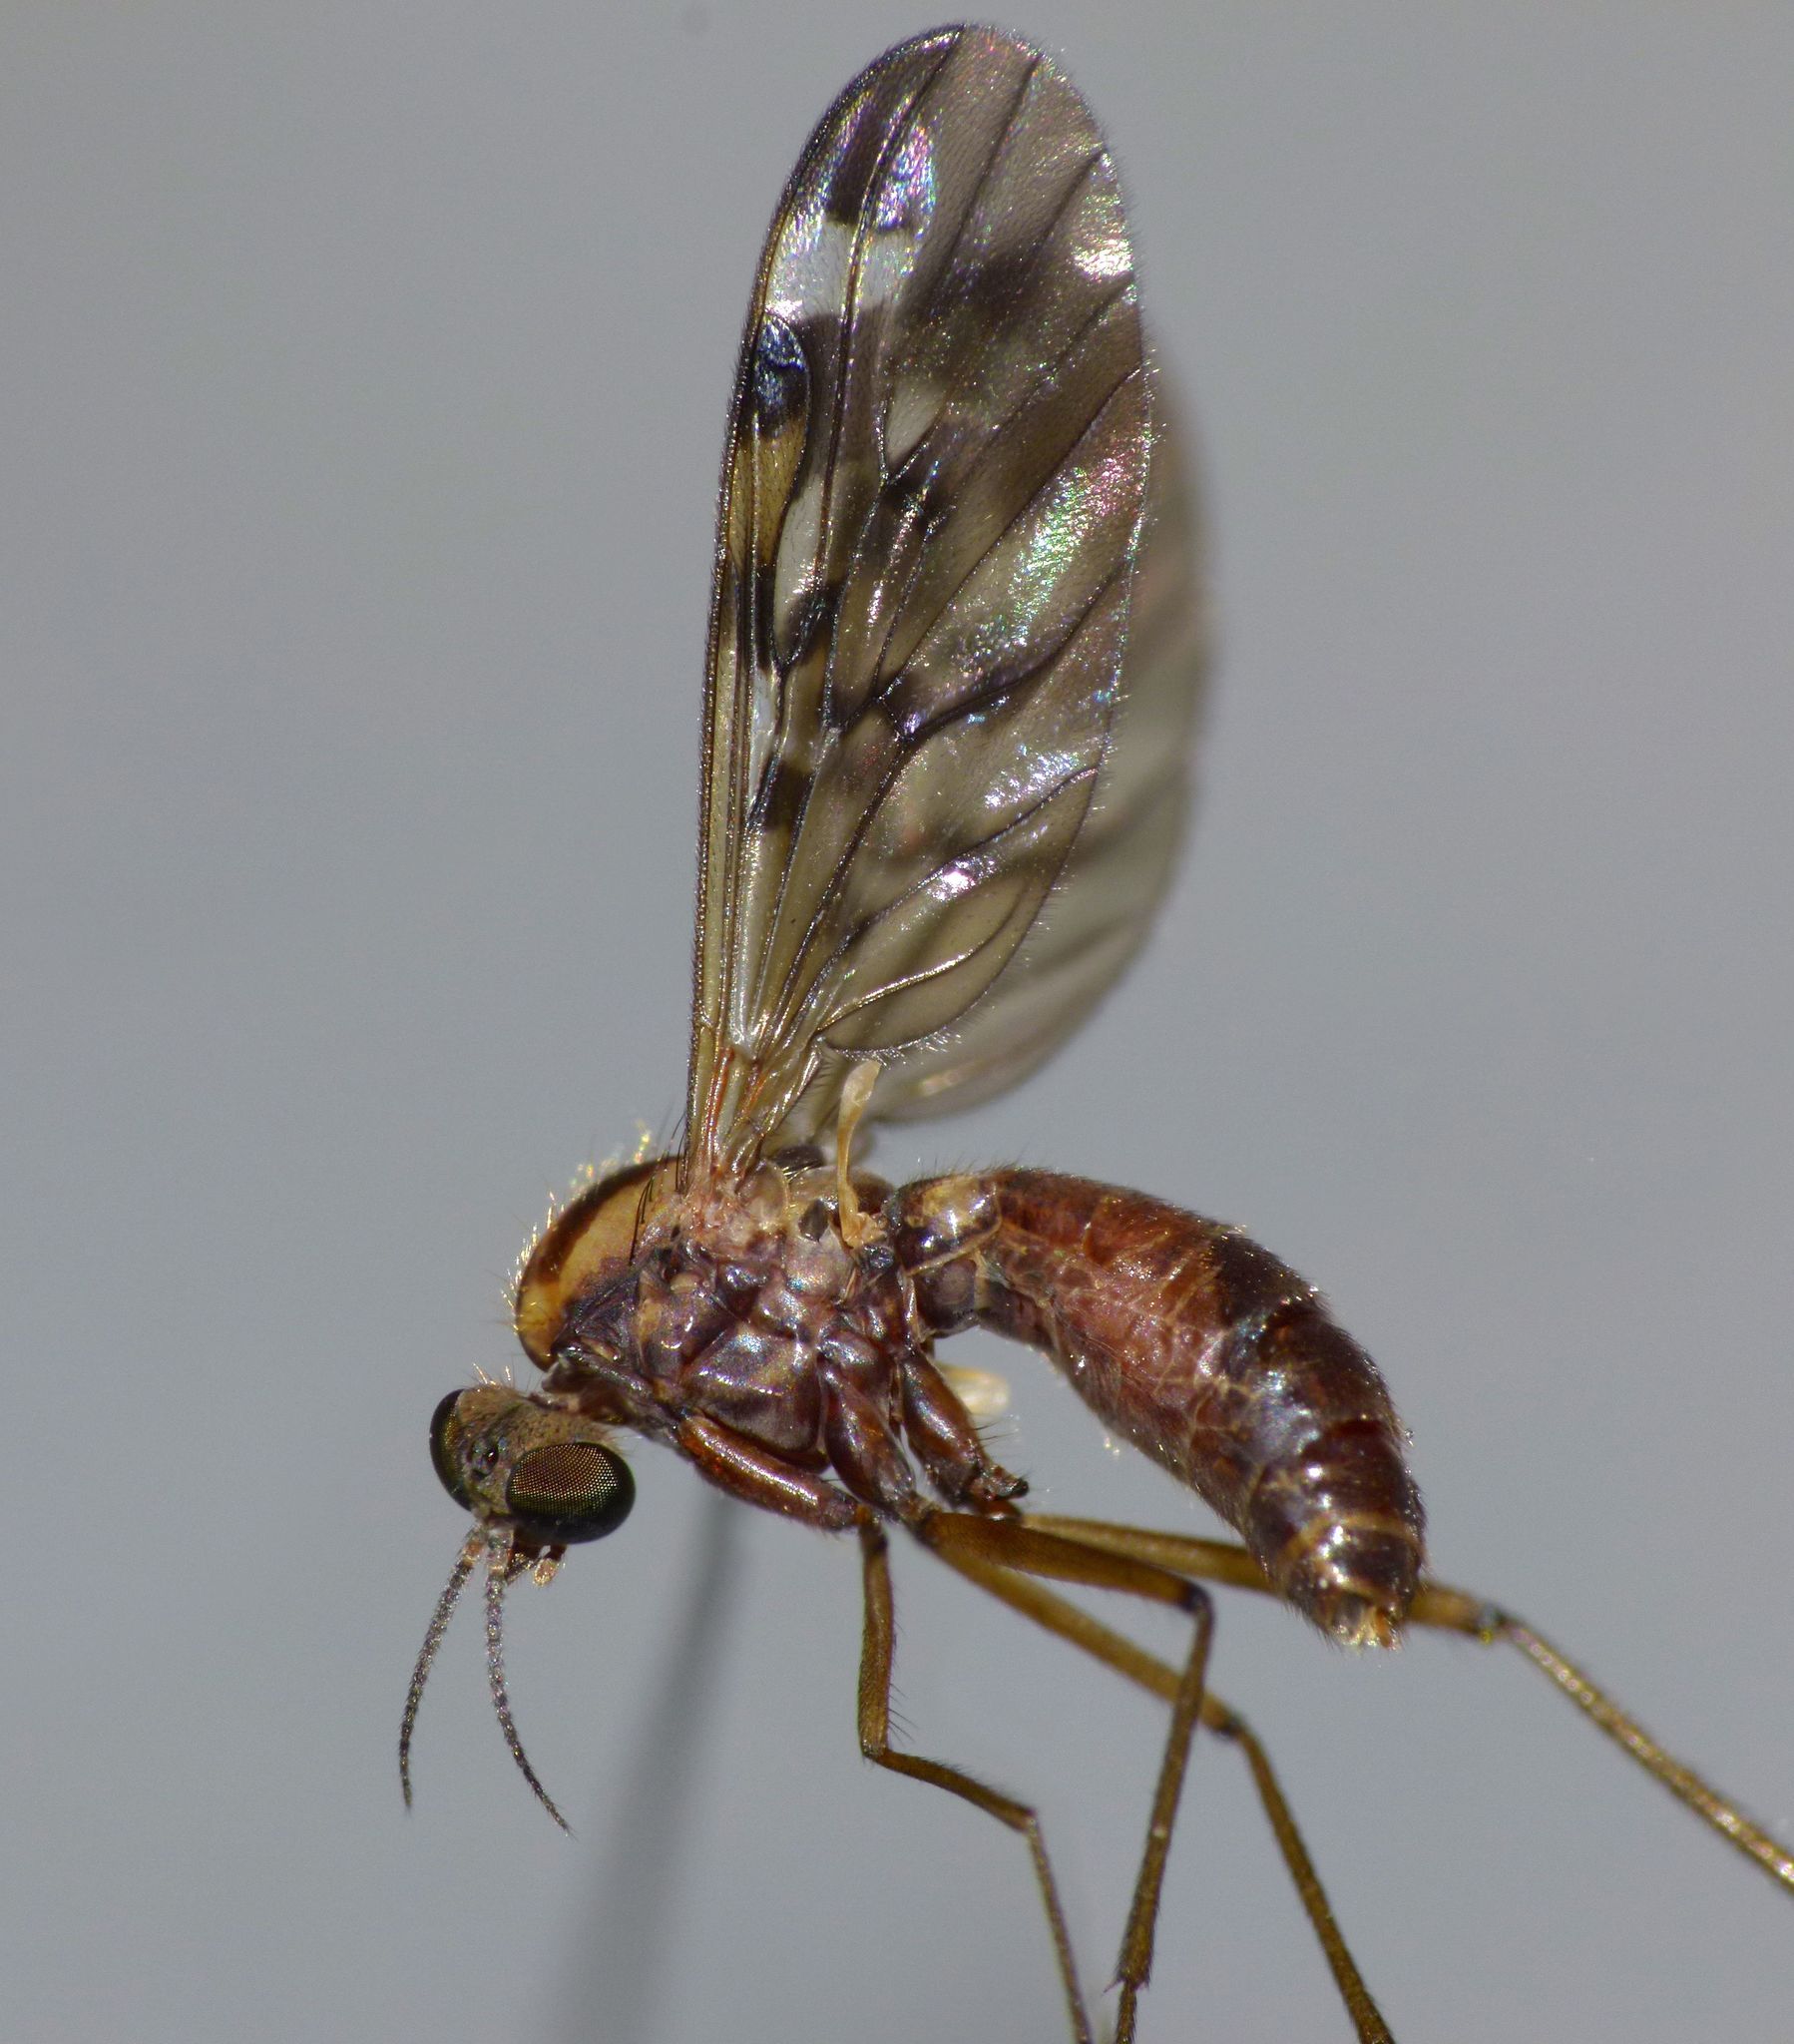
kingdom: Animalia
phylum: Arthropoda
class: Insecta
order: Diptera
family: Anisopodidae
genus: Sylvicola
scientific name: Sylvicola notatus
